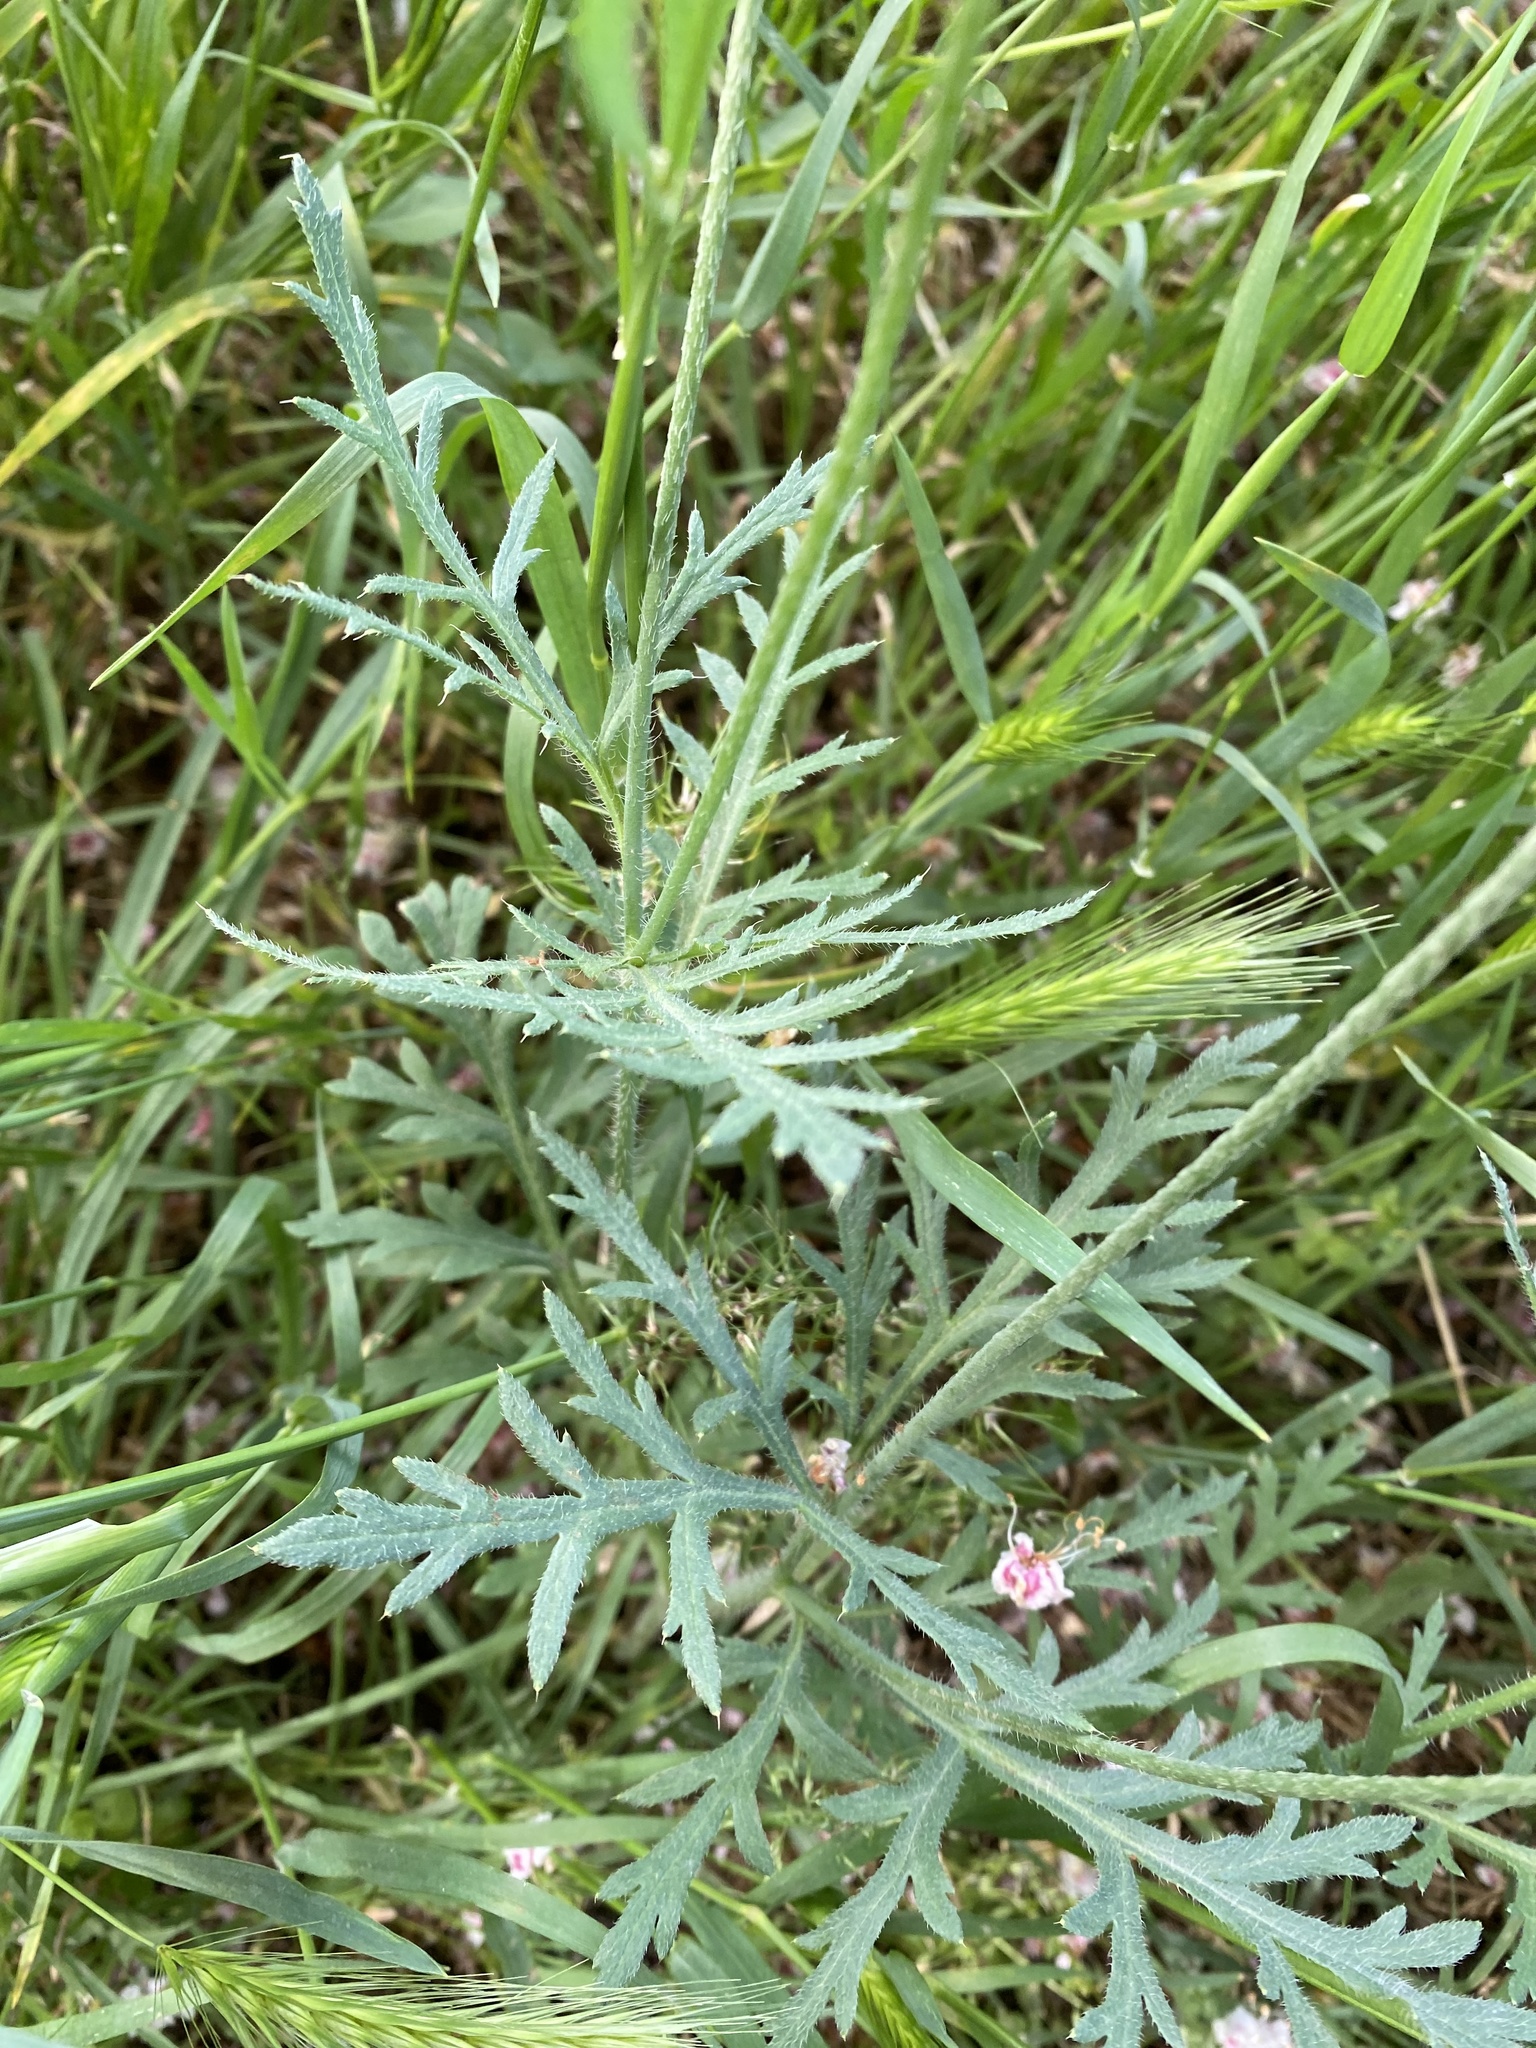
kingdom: Plantae
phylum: Tracheophyta
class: Magnoliopsida
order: Ranunculales
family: Papaveraceae
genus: Papaver
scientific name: Papaver dubium
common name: Long-headed poppy
